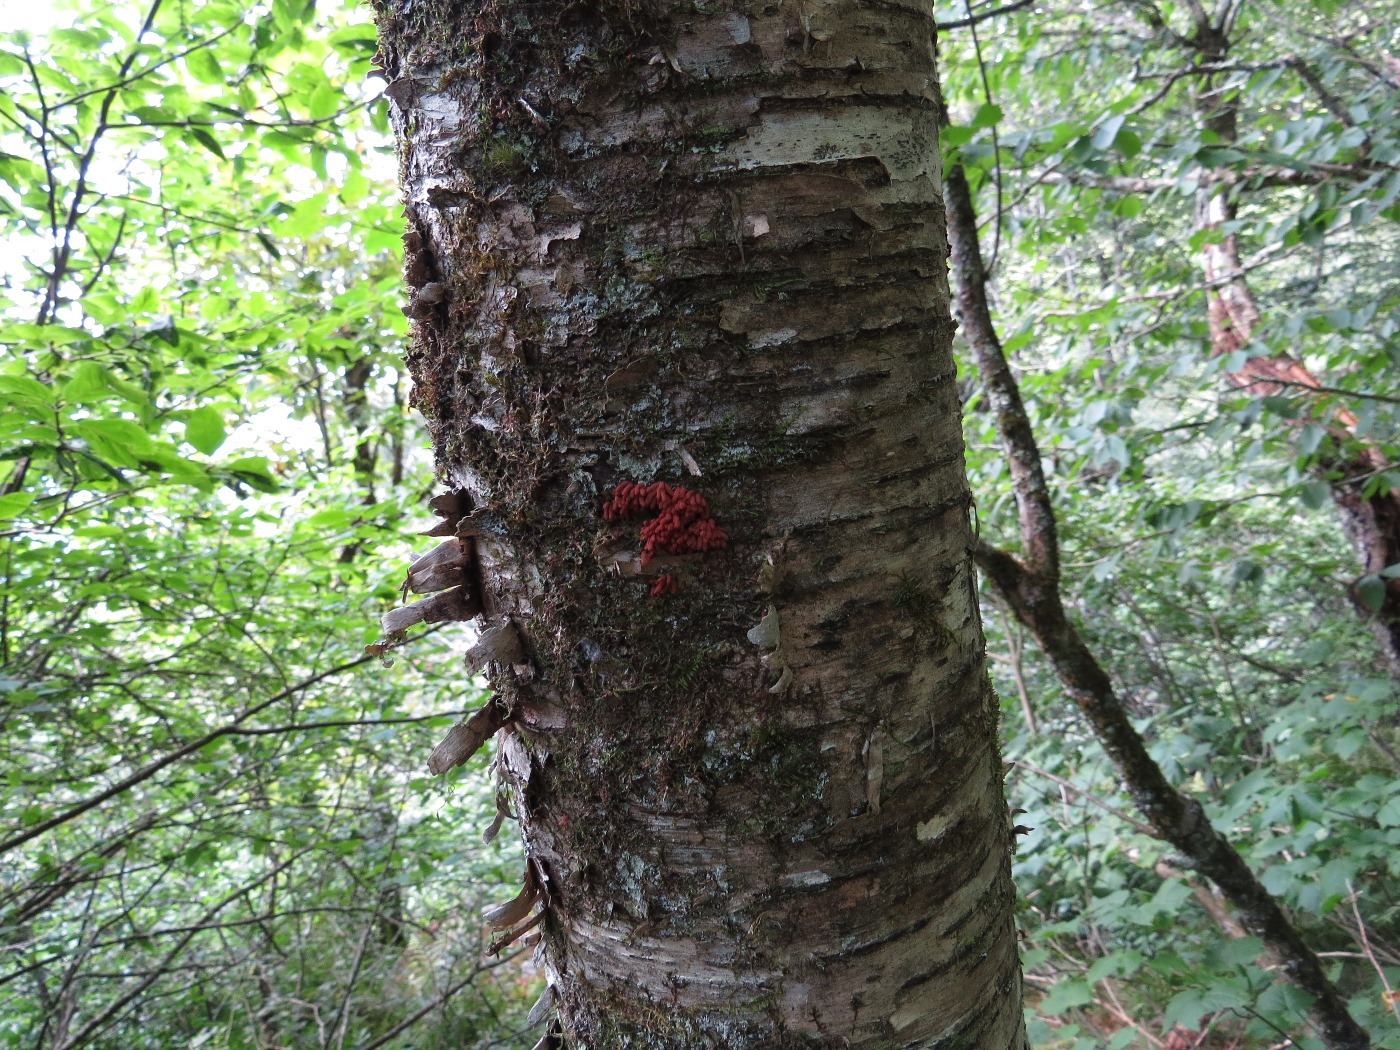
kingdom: Protozoa
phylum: Mycetozoa
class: Myxomycetes
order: Trichiales
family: Arcyriaceae
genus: Arcyria
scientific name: Arcyria denudata
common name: Carnival candy slime mold
